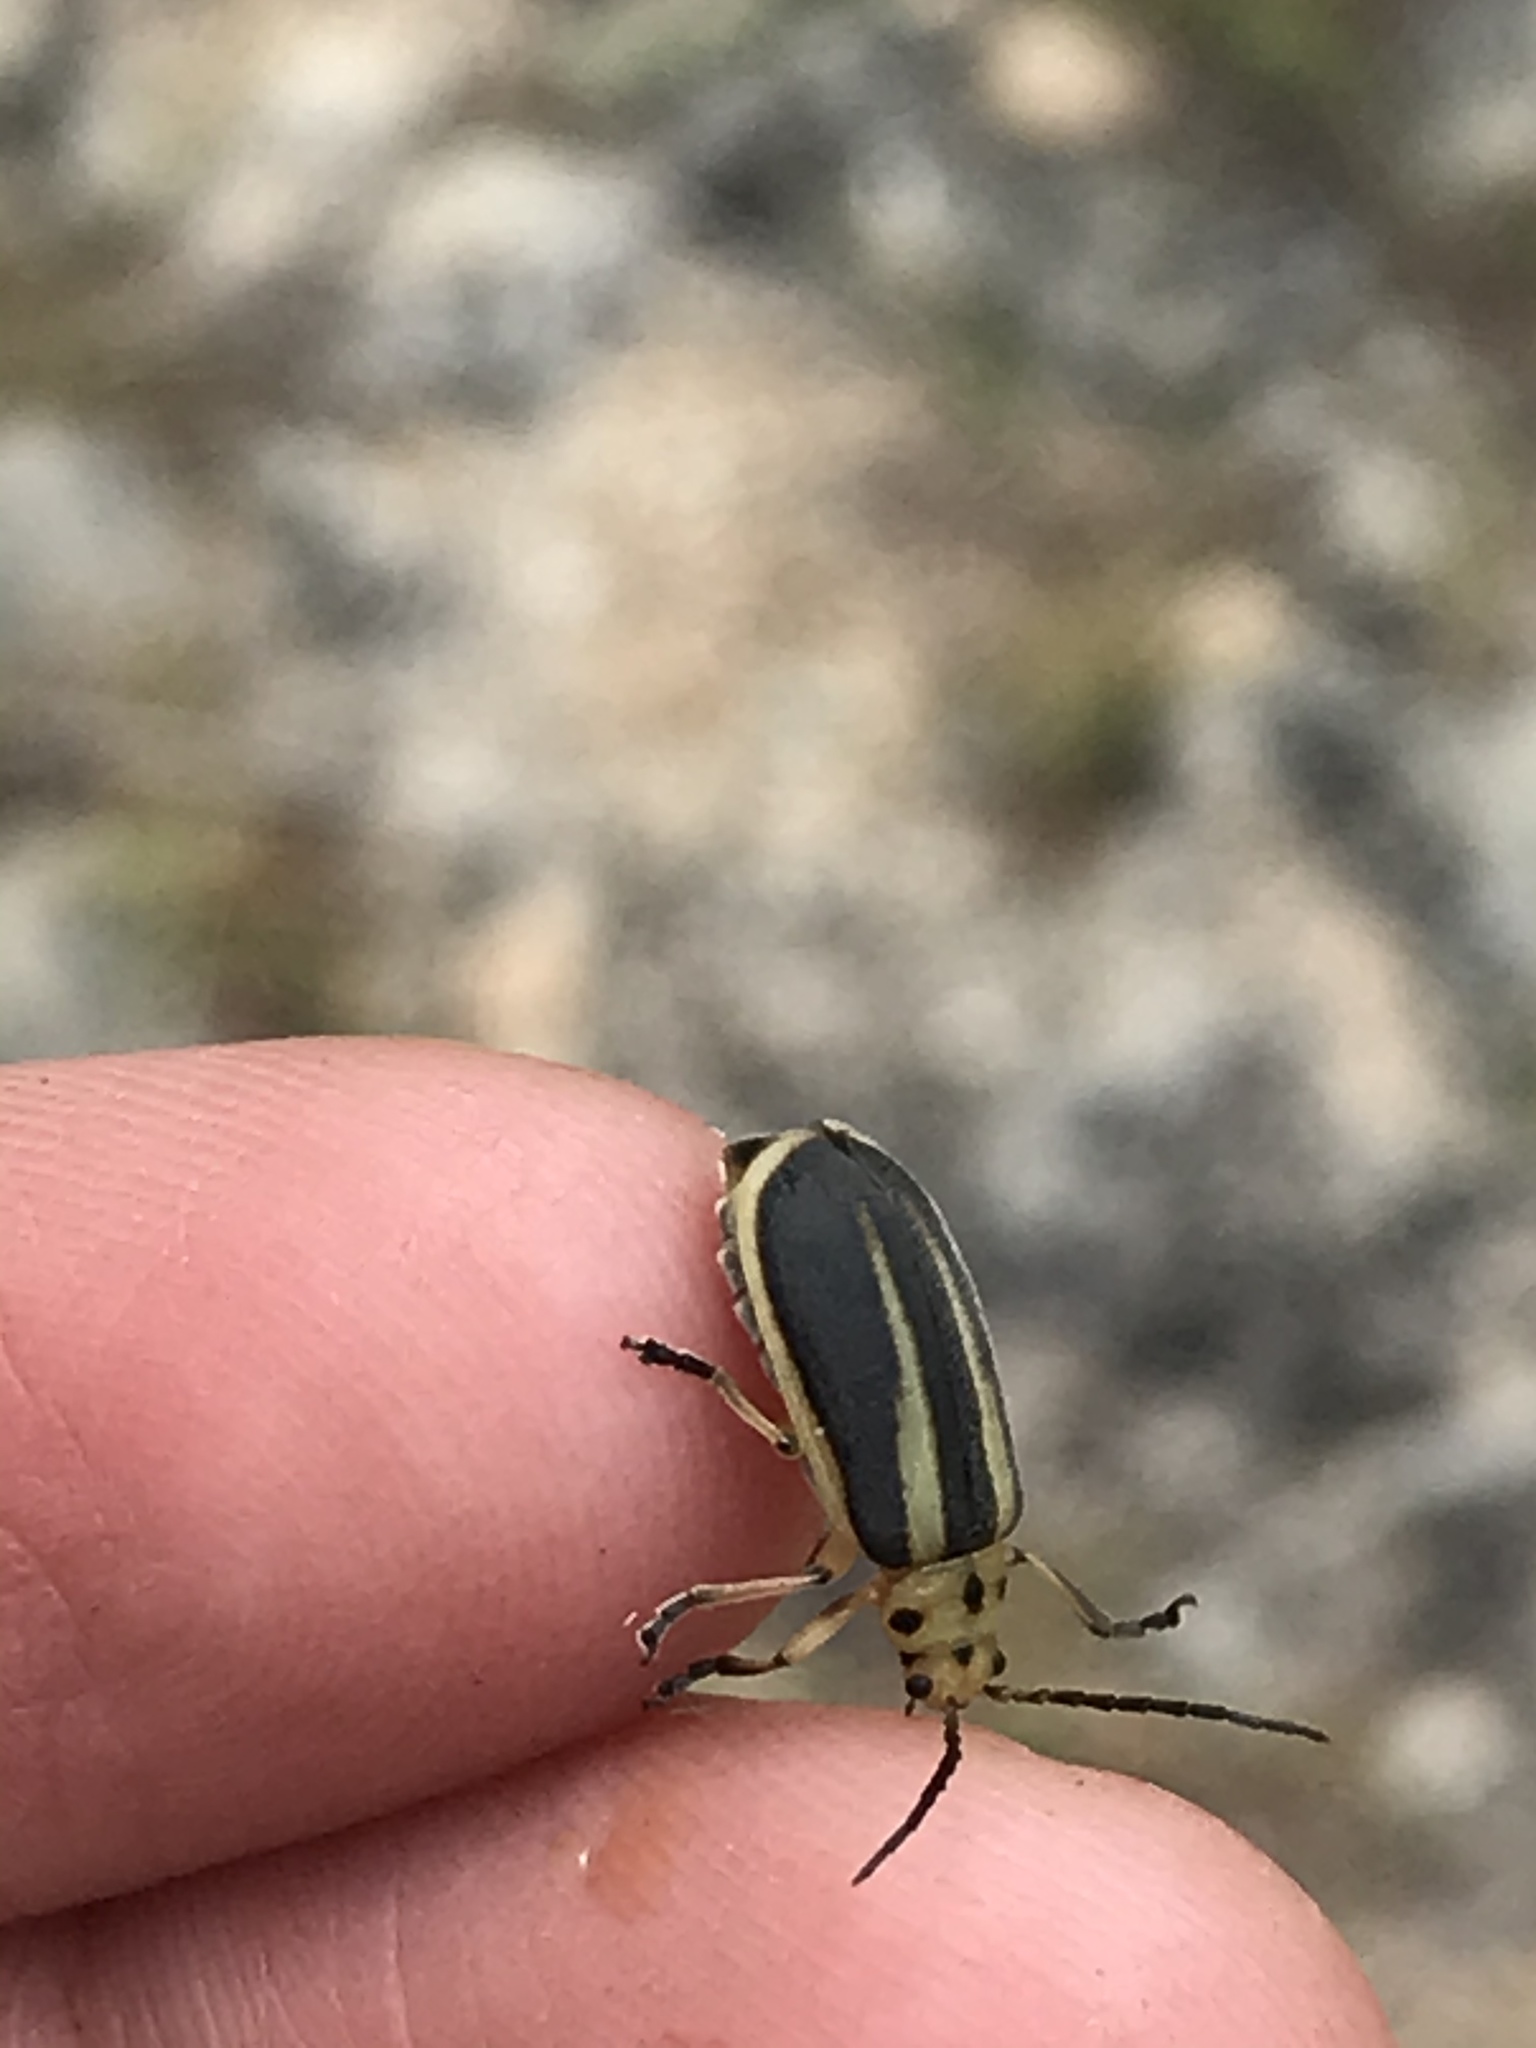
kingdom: Animalia
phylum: Arthropoda
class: Insecta
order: Coleoptera
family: Chrysomelidae
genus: Trirhabda
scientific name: Trirhabda bacharidis
